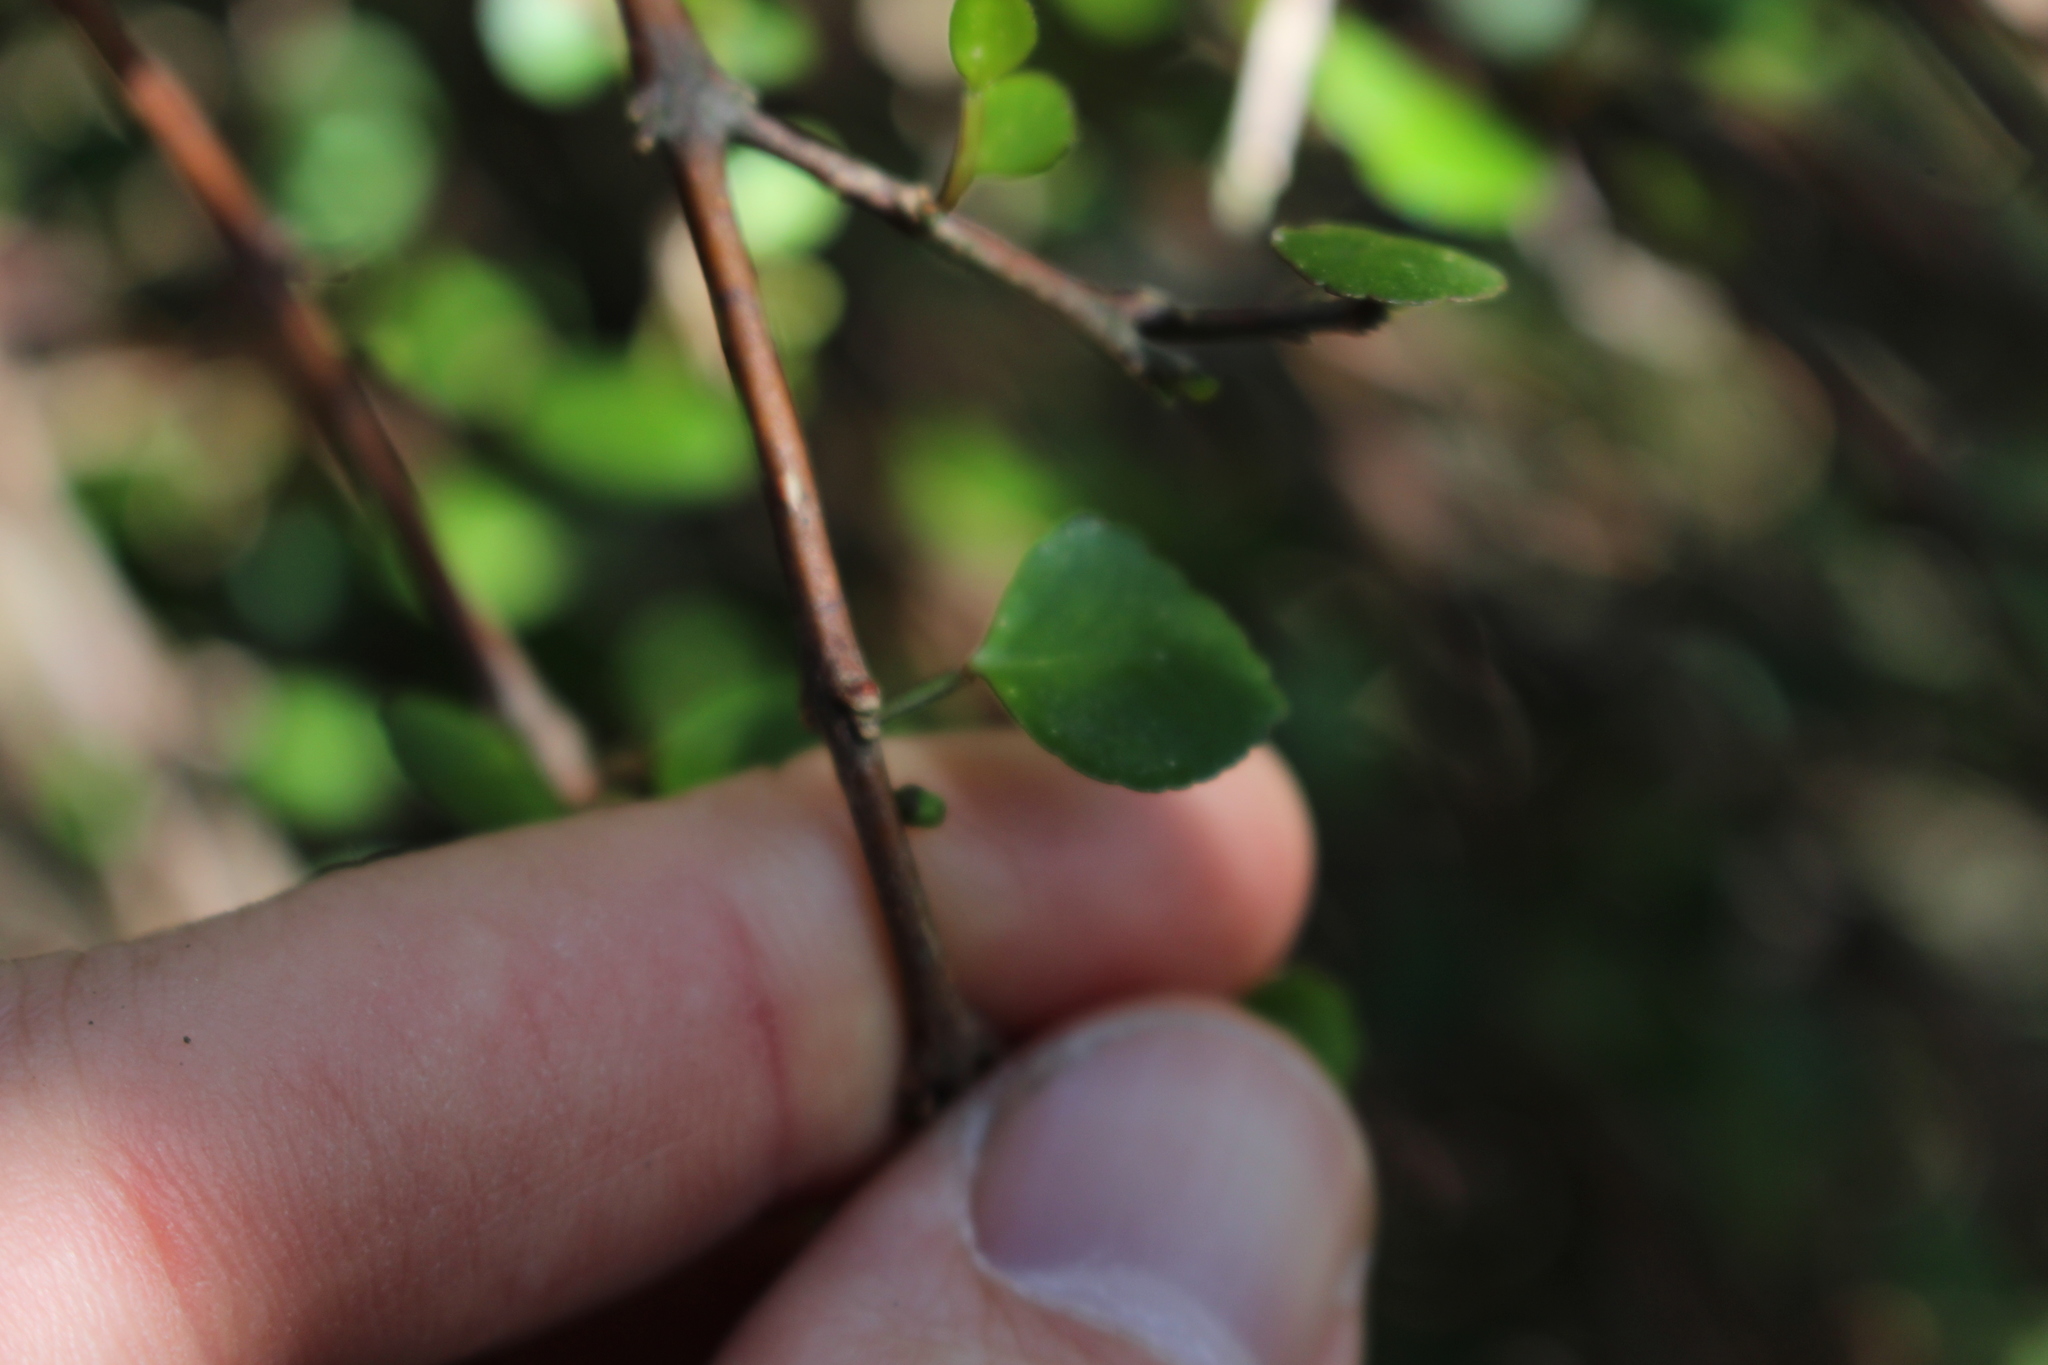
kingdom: Plantae
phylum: Tracheophyta
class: Magnoliopsida
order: Sapindales
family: Rutaceae
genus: Melicope
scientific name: Melicope simplex
